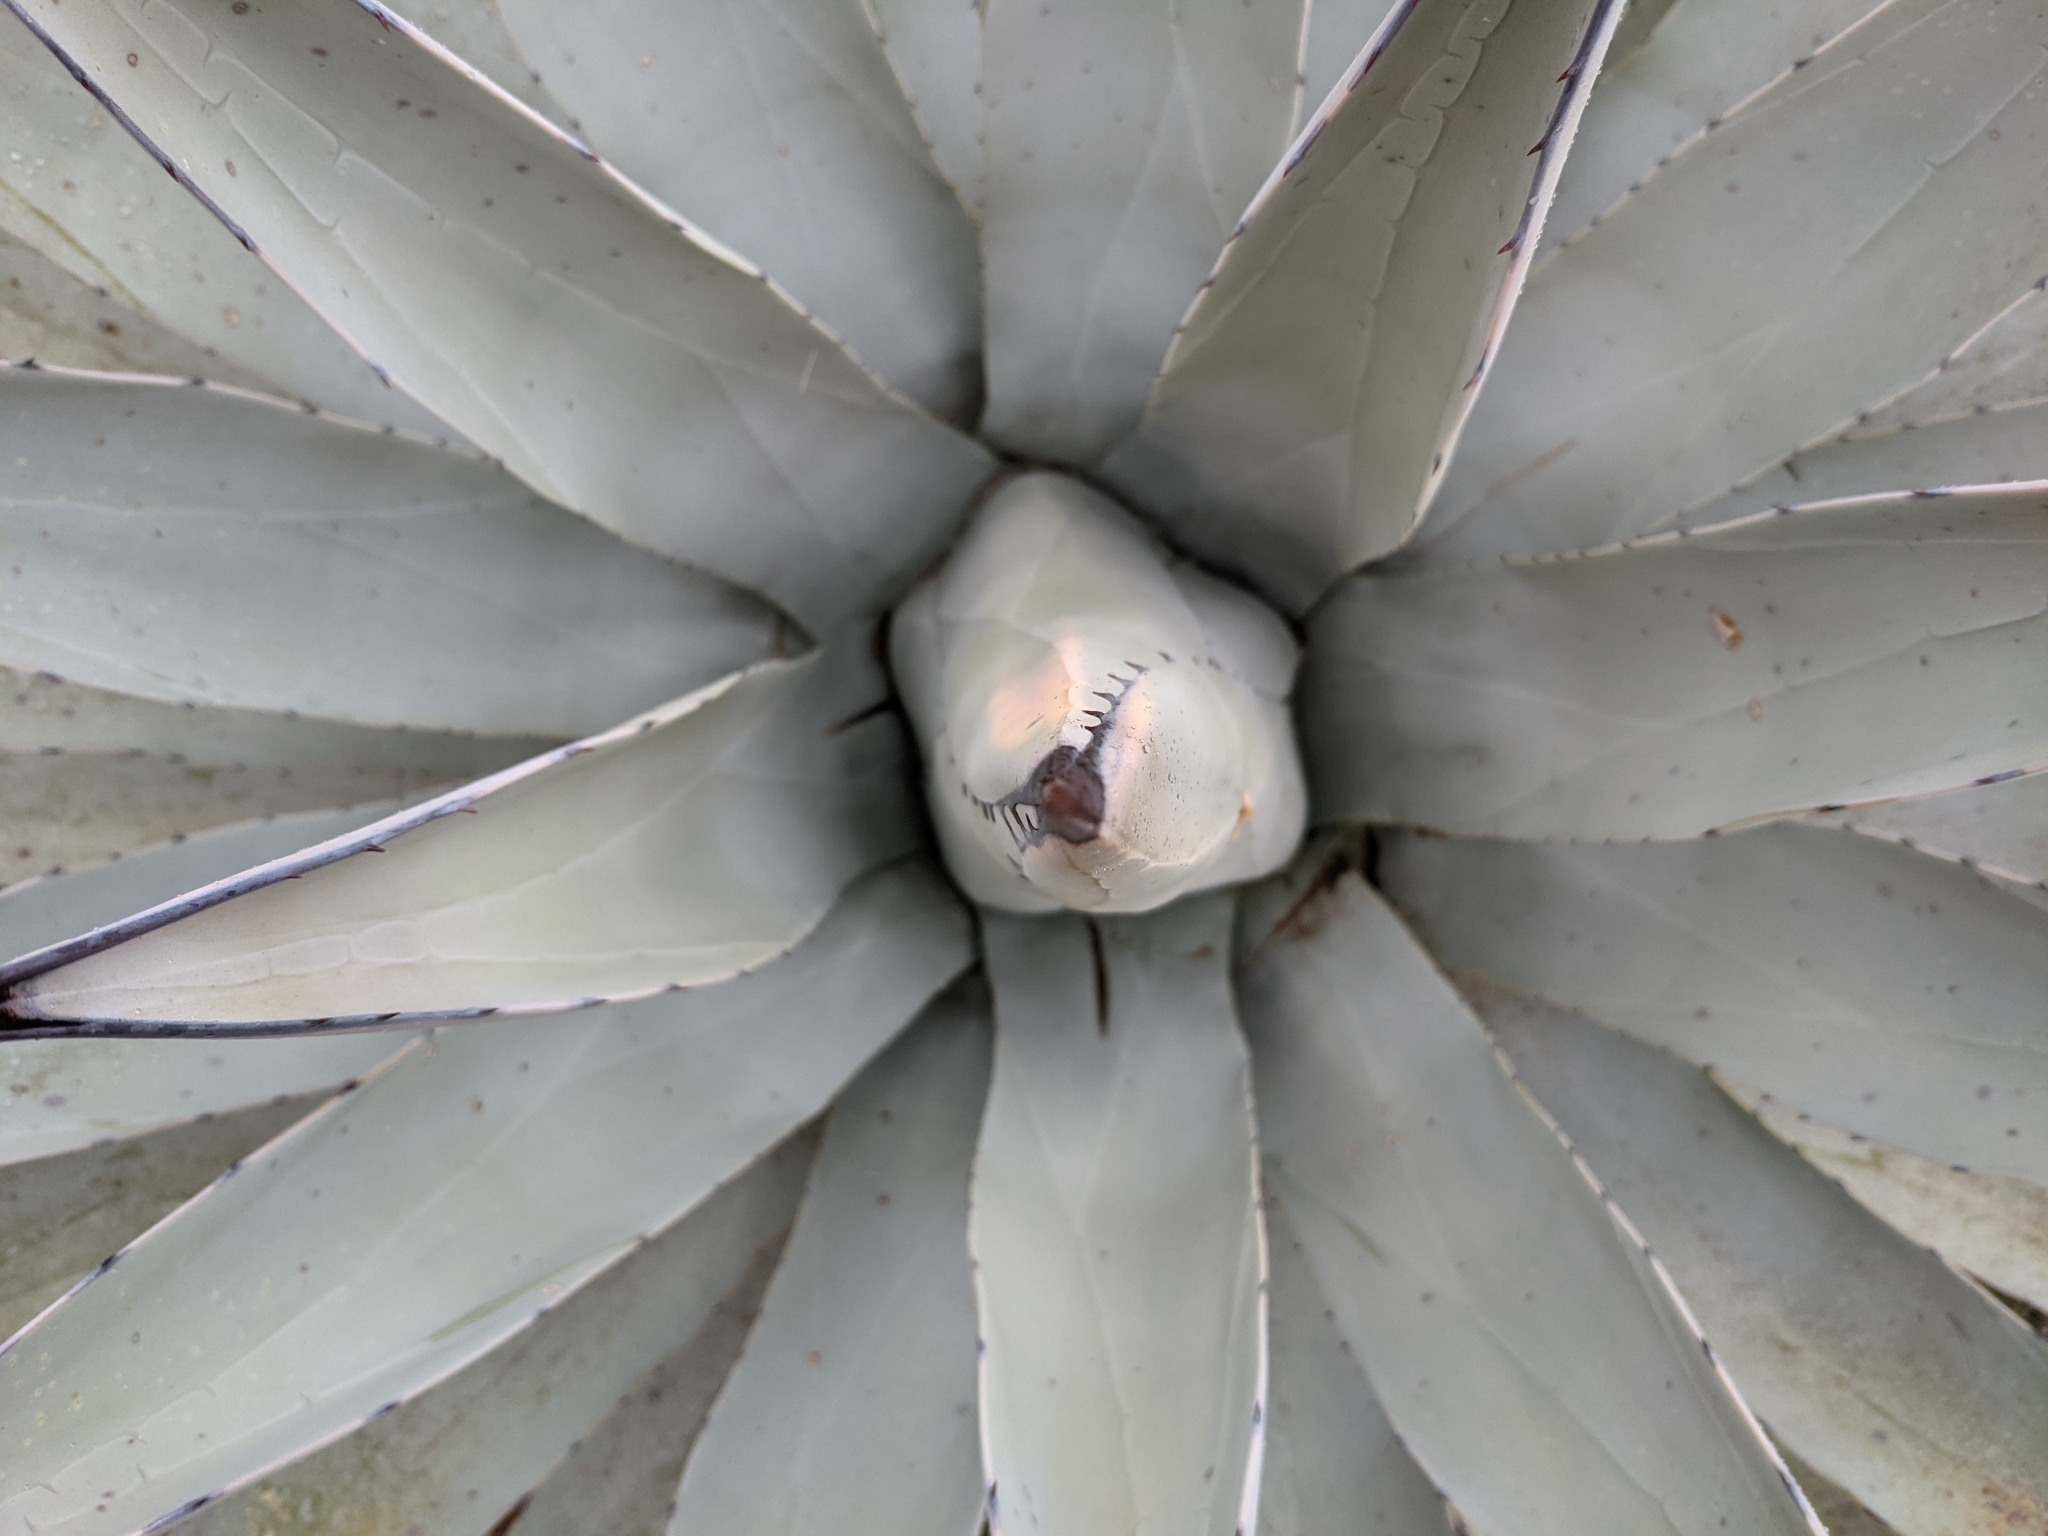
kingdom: Plantae
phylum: Tracheophyta
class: Liliopsida
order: Asparagales
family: Asparagaceae
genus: Agave
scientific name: Agave parryi
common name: Parry's agave
